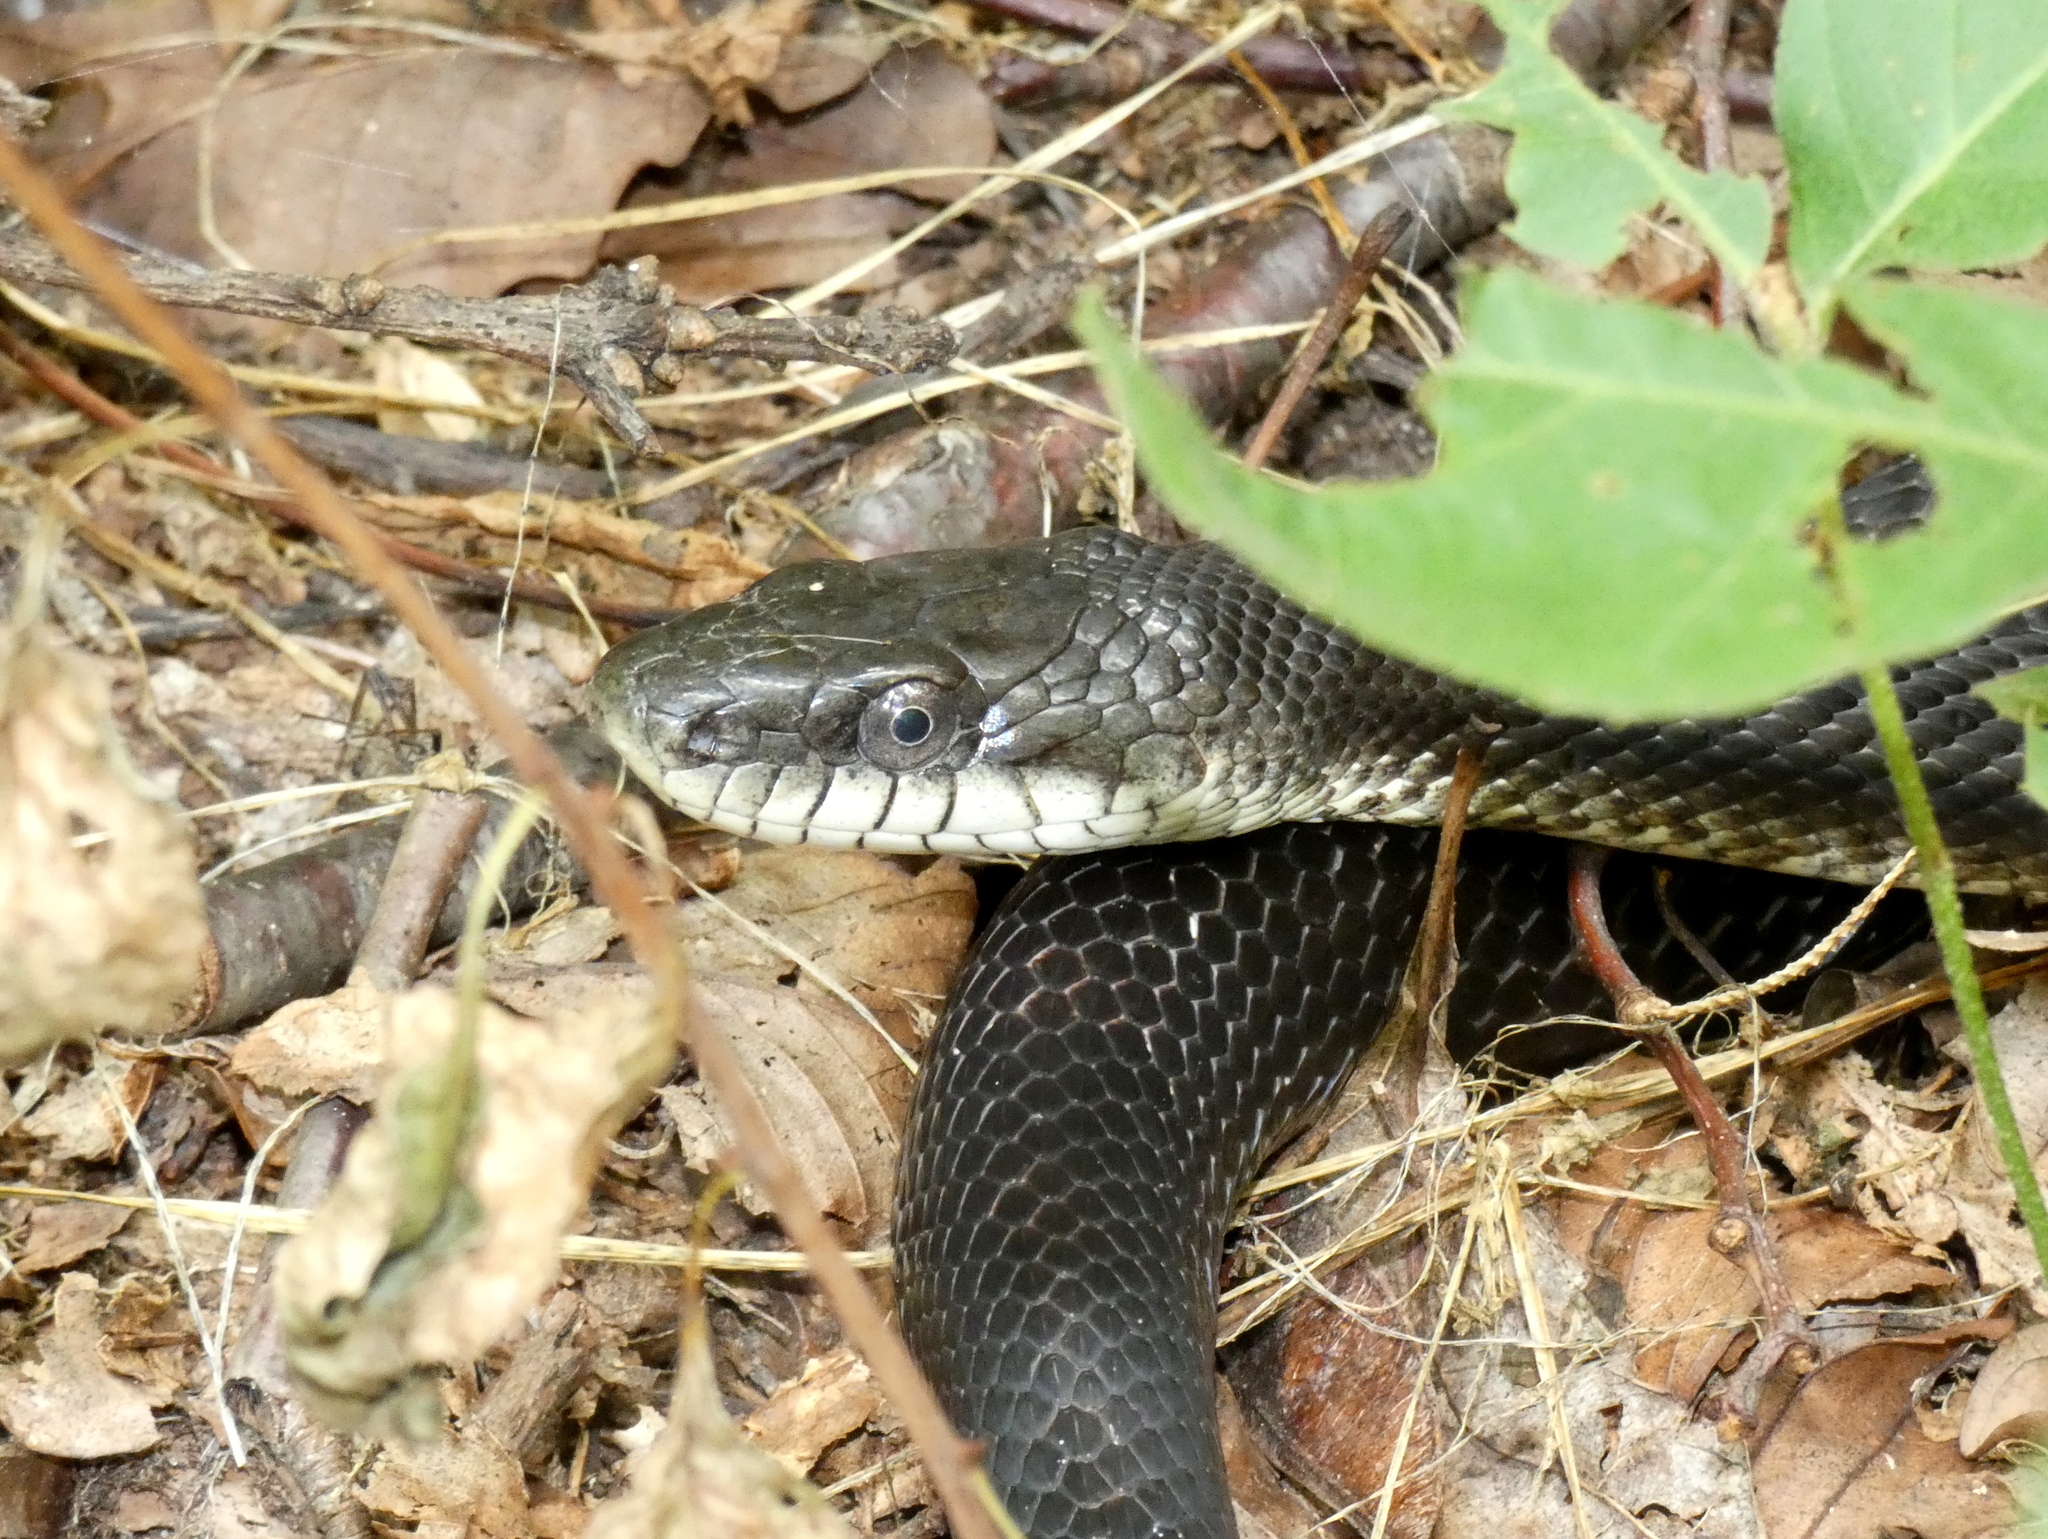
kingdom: Animalia
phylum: Chordata
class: Squamata
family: Colubridae
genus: Pantherophis
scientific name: Pantherophis alleghaniensis
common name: Eastern rat snake
